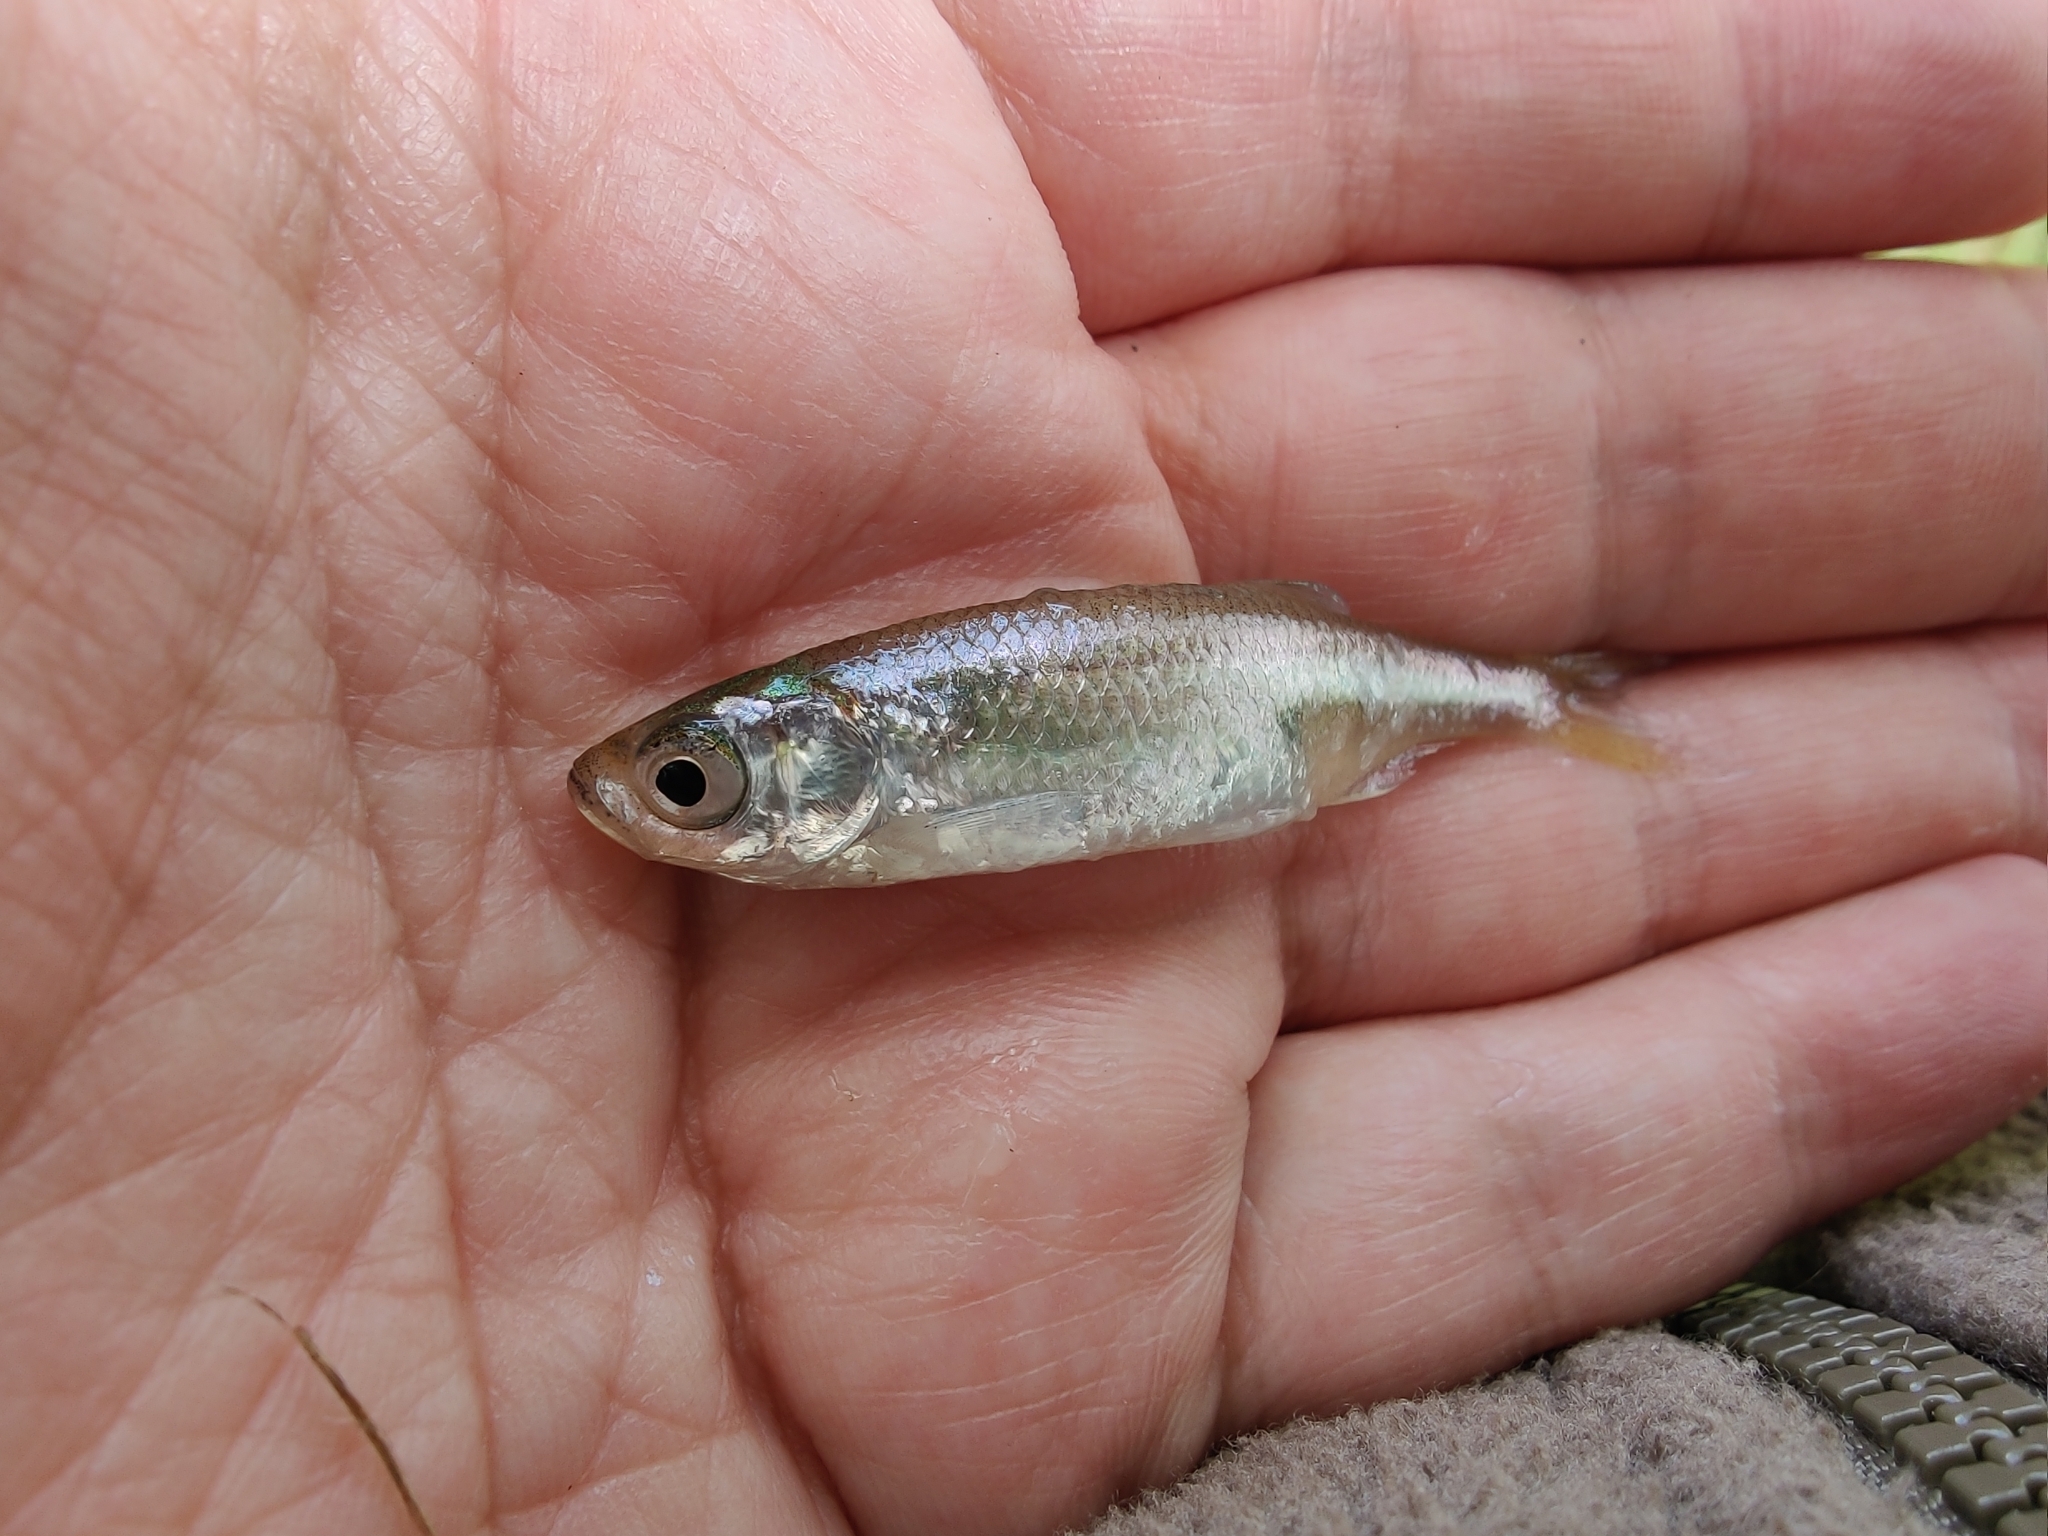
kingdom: Animalia
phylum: Chordata
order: Cypriniformes
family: Cyprinidae
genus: Leucaspius
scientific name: Leucaspius delineatus
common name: Sunbleak
